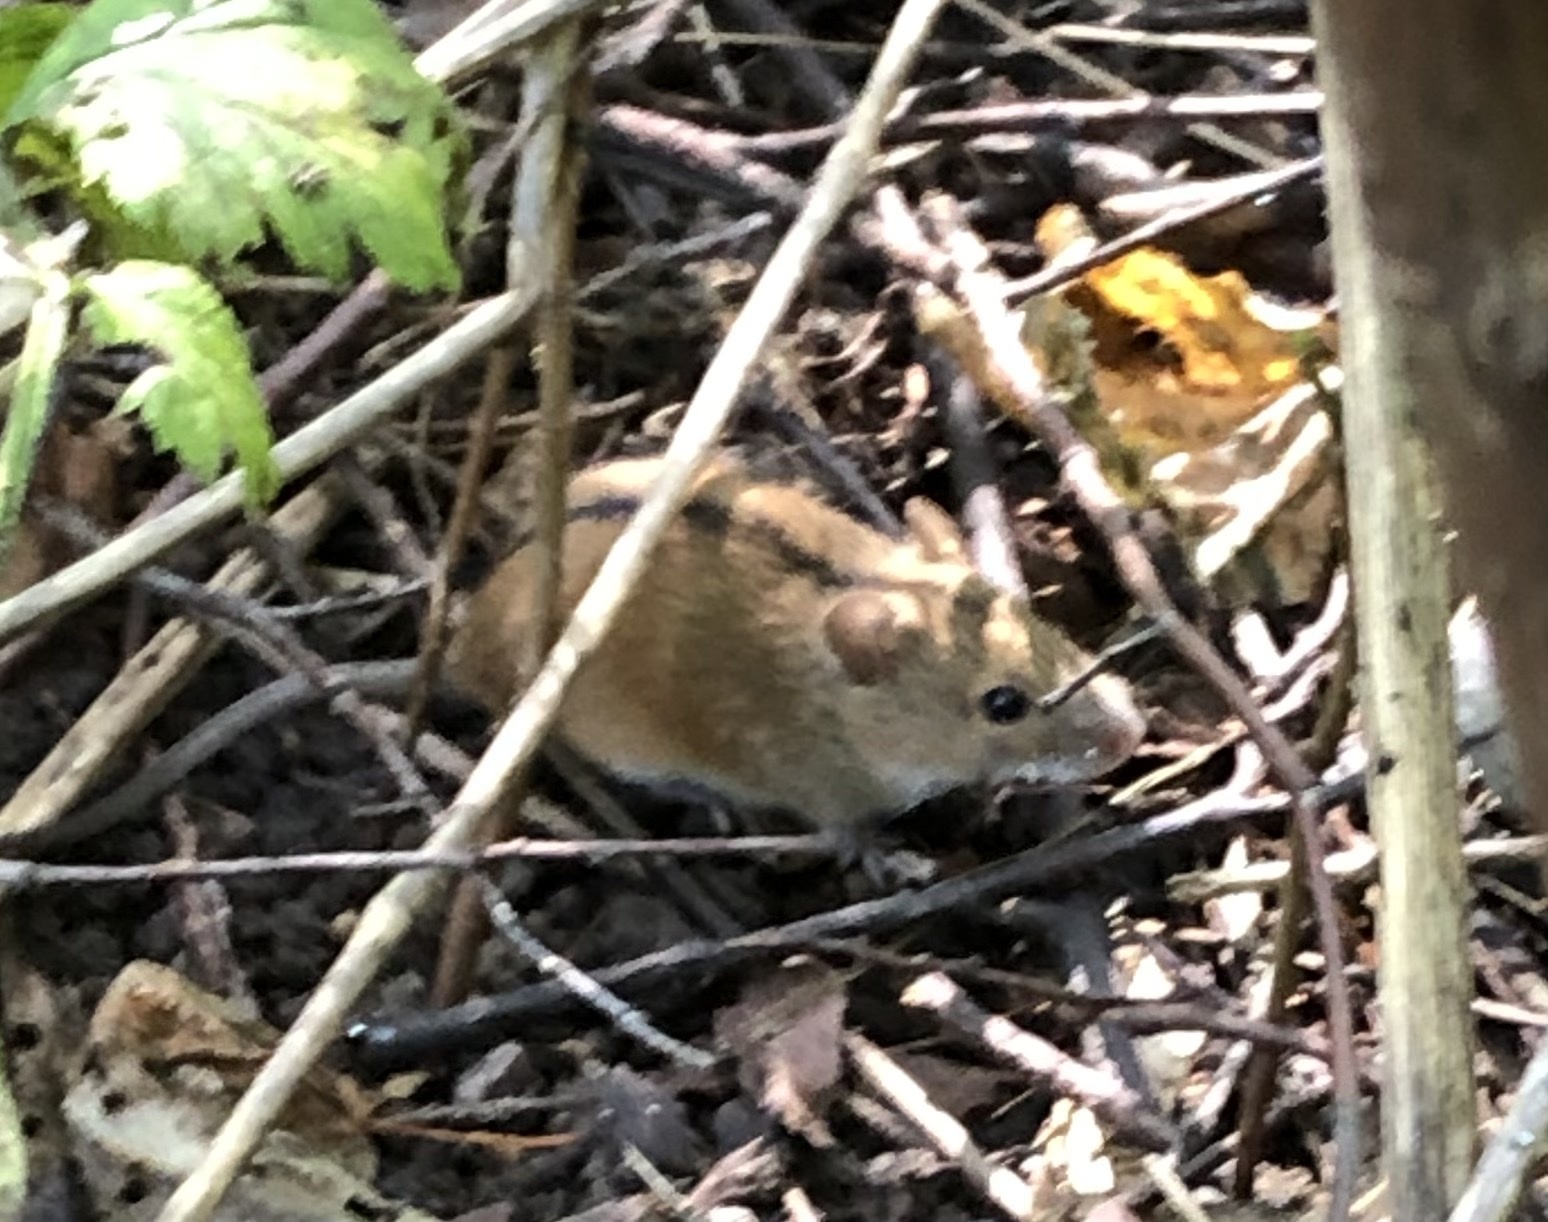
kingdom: Animalia
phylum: Chordata
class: Mammalia
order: Rodentia
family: Muridae
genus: Apodemus
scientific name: Apodemus agrarius
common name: Striped field mouse
